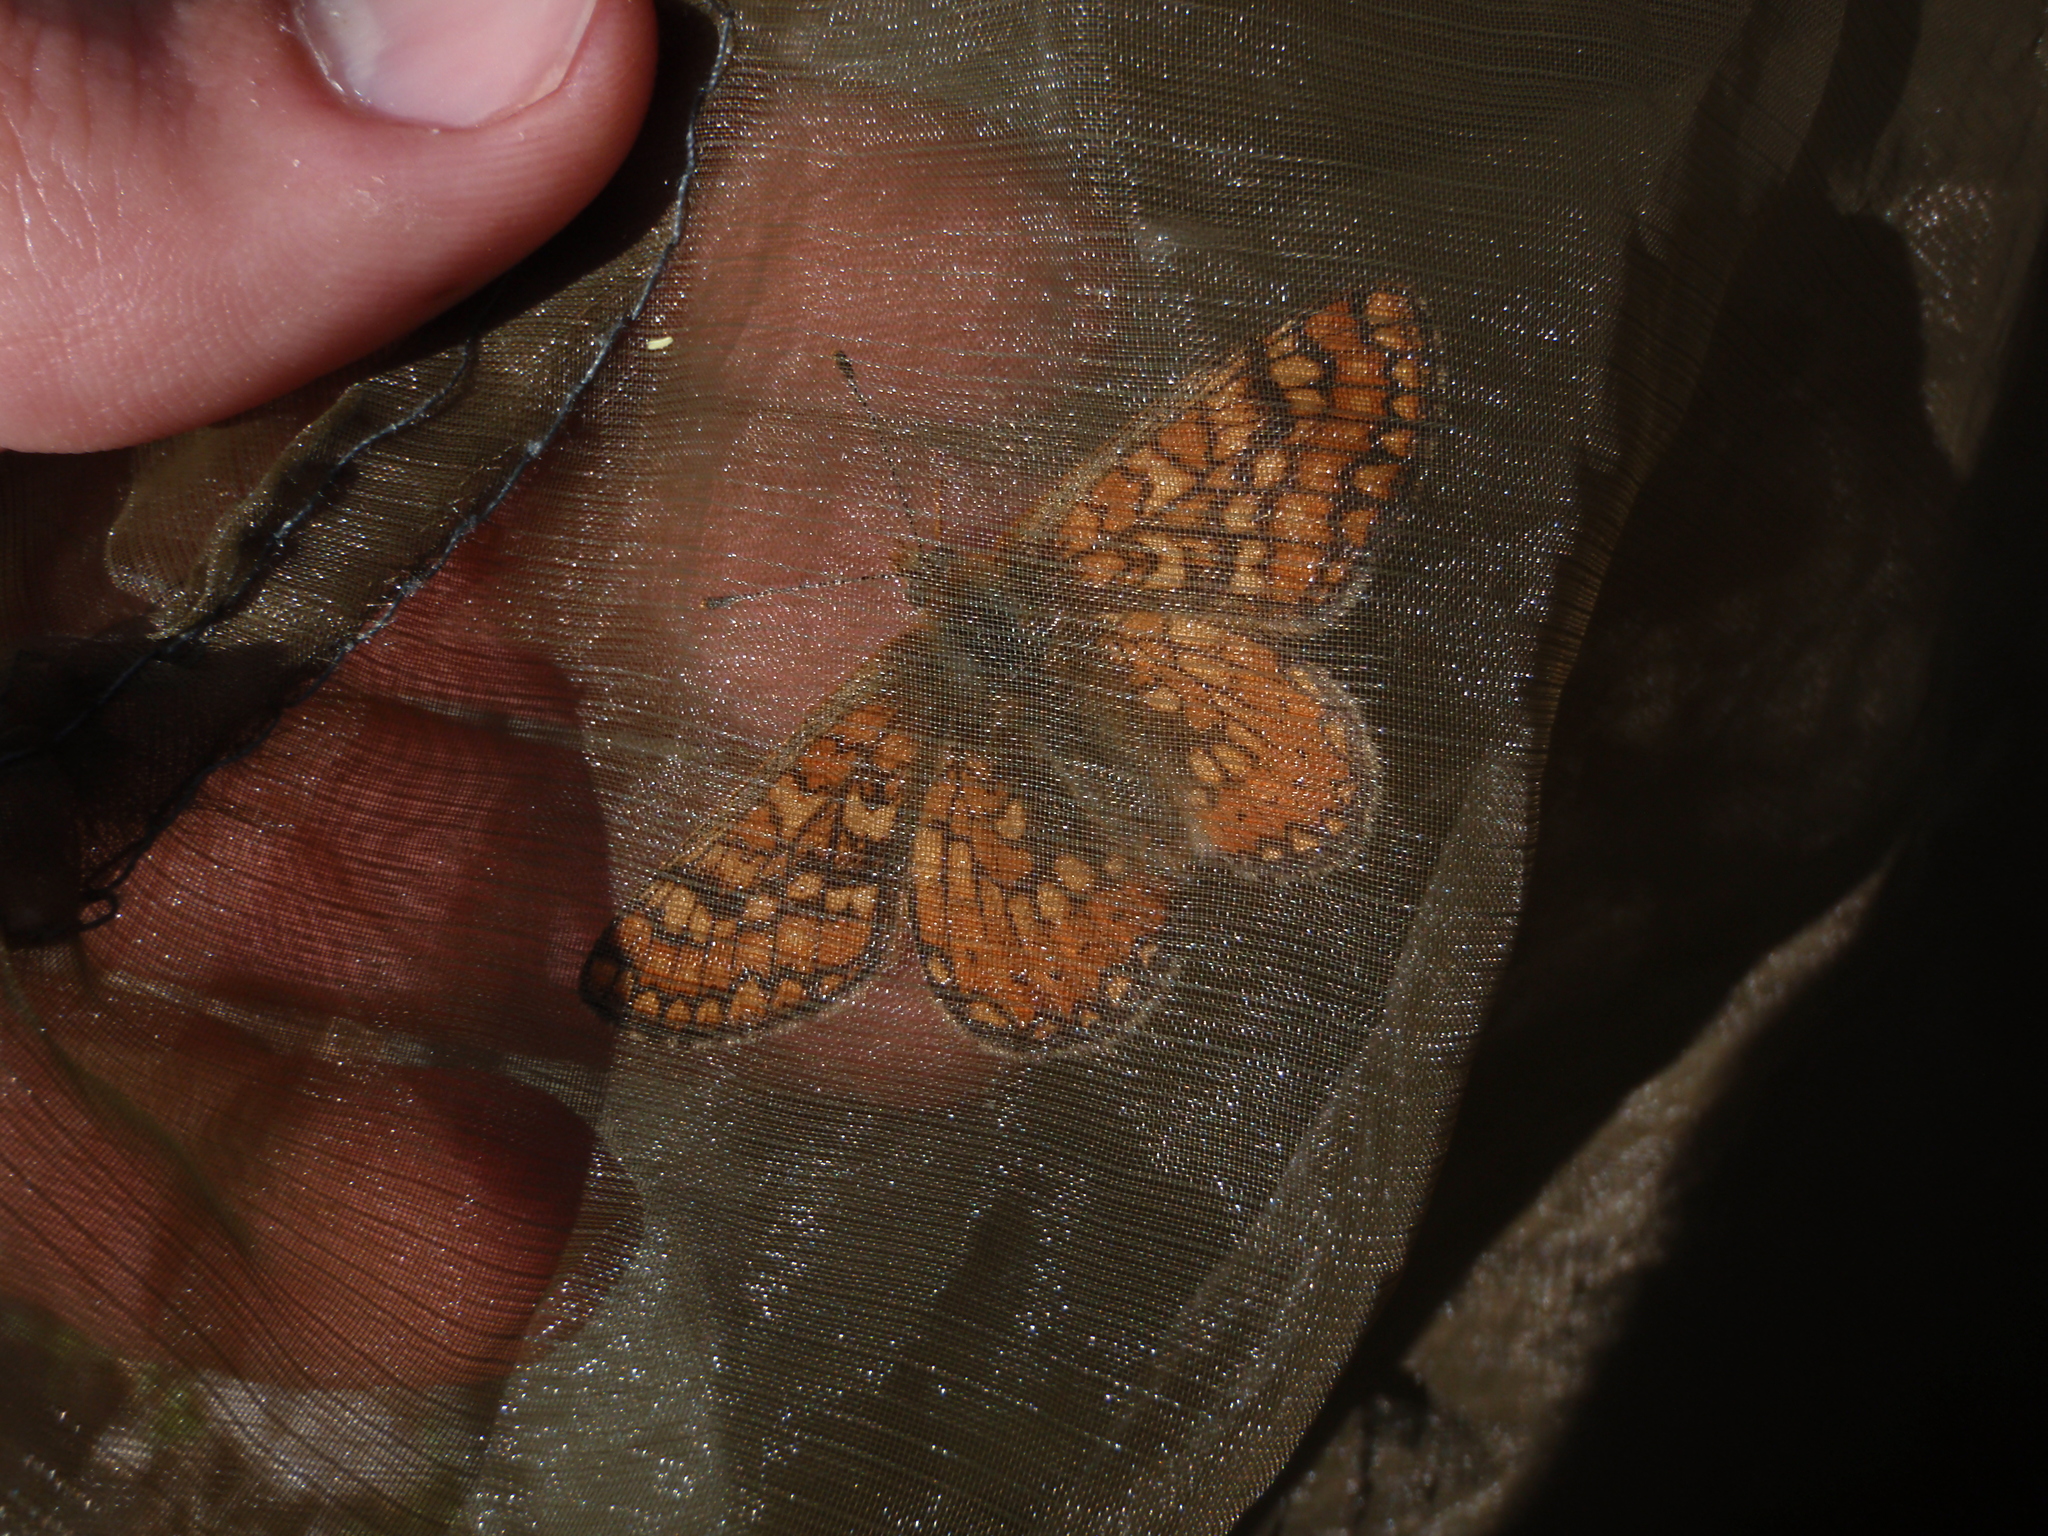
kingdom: Animalia
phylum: Arthropoda
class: Insecta
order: Lepidoptera
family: Nymphalidae
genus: Euphydryas
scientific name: Euphydryas aurinia
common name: Marsh fritillary
